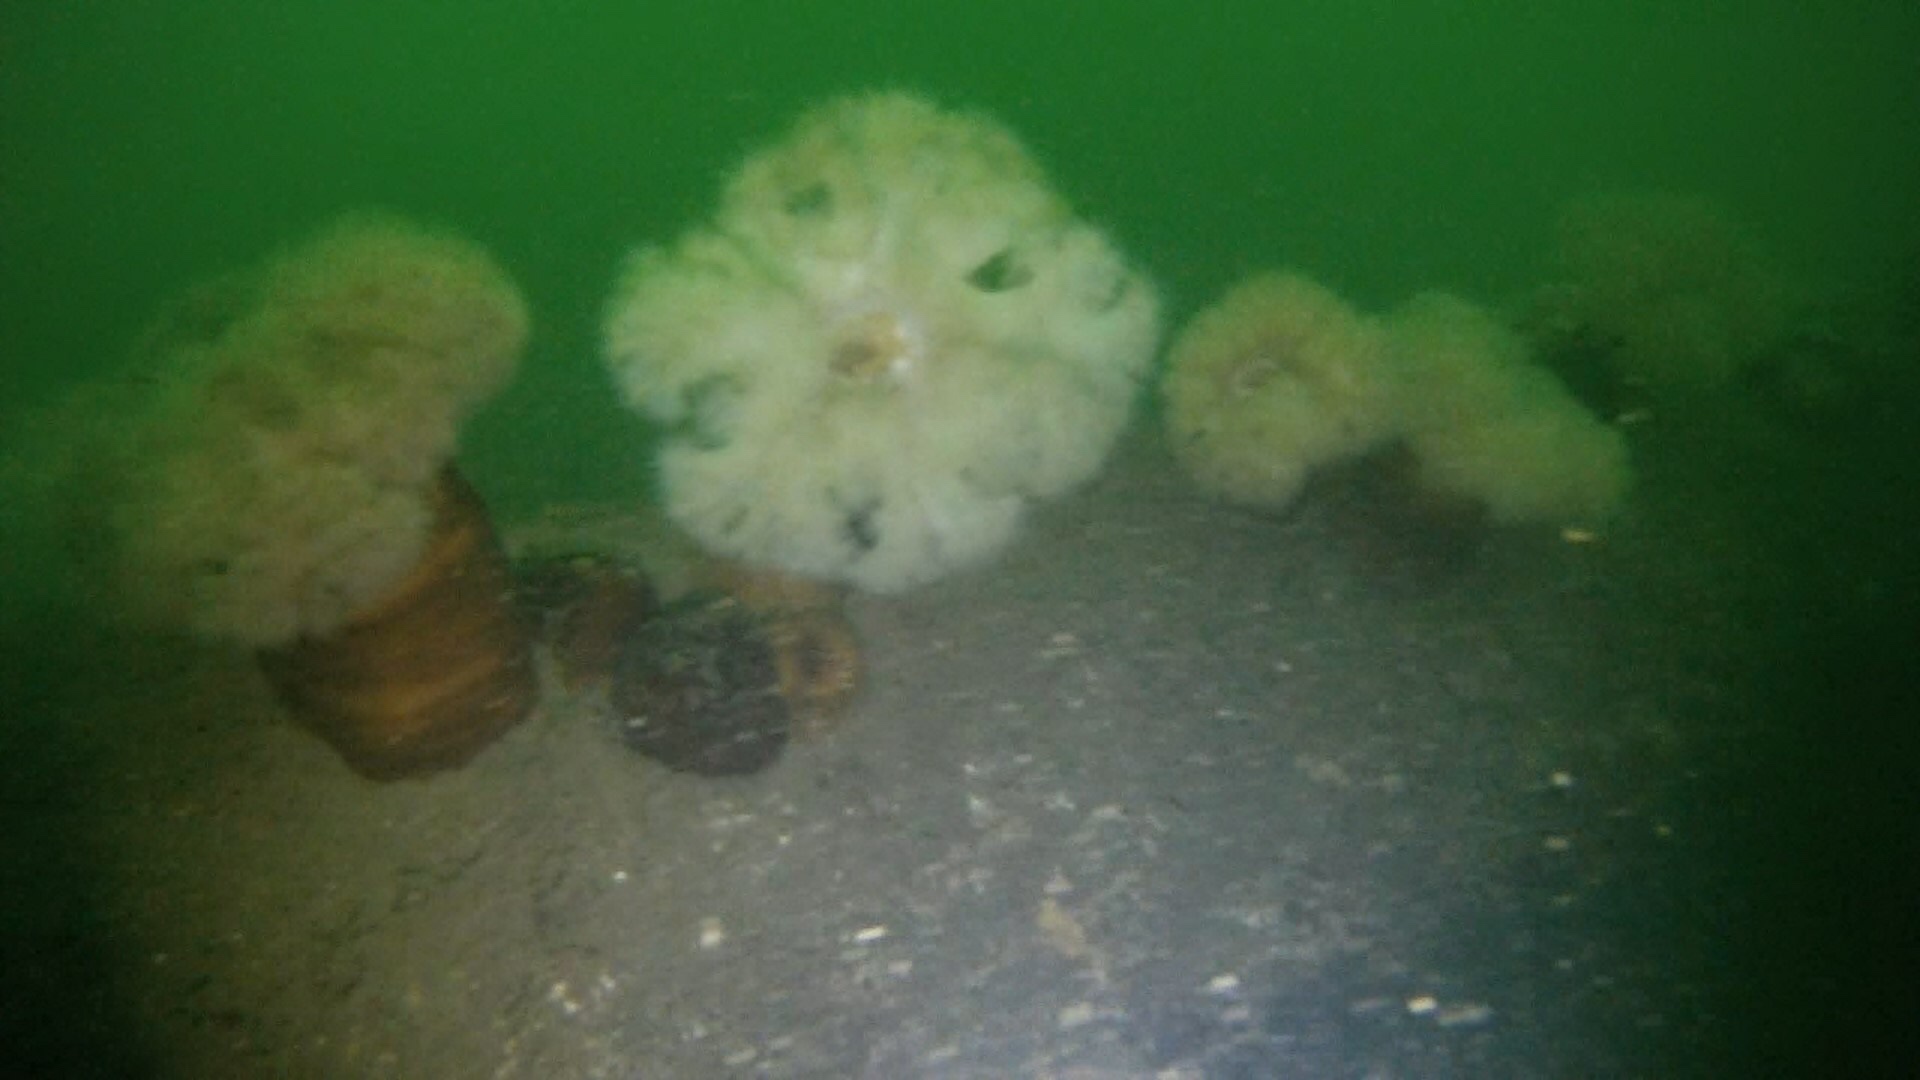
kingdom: Animalia
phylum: Cnidaria
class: Anthozoa
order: Actiniaria
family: Metridiidae
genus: Metridium
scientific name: Metridium senile
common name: Clonal plumose anemone
